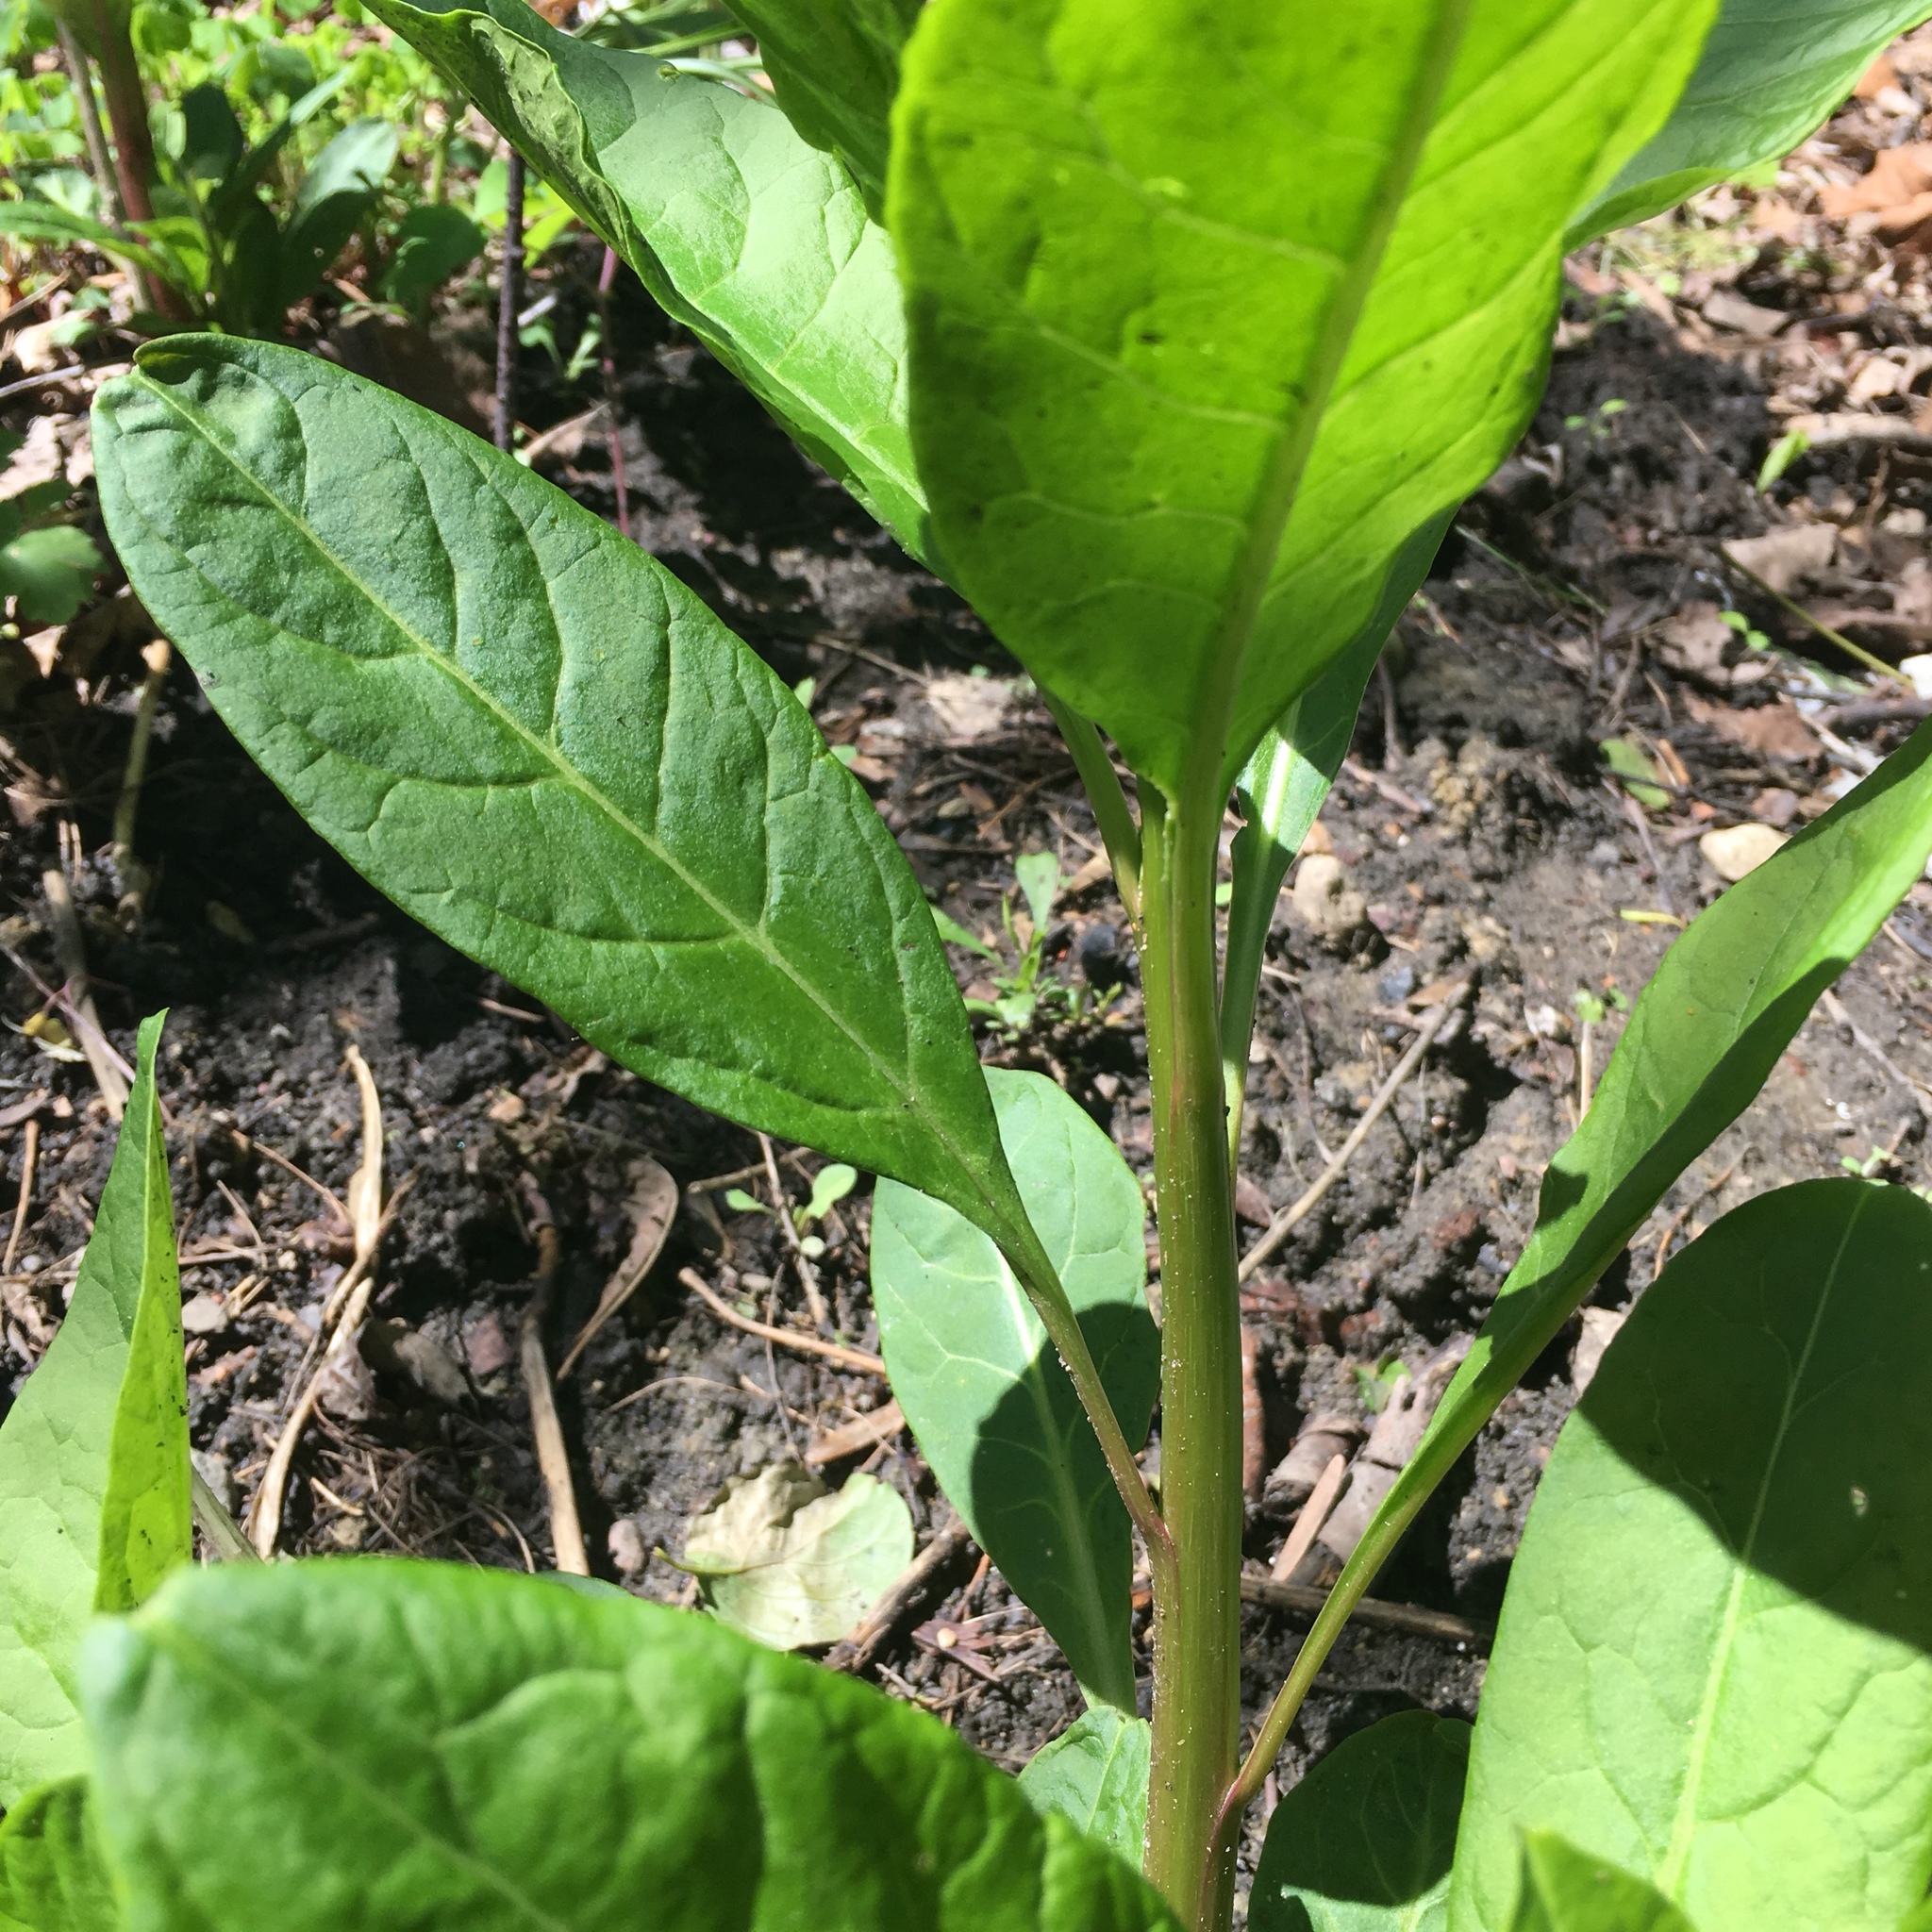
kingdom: Plantae
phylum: Tracheophyta
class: Magnoliopsida
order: Caryophyllales
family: Phytolaccaceae
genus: Phytolacca
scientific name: Phytolacca americana
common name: American pokeweed
